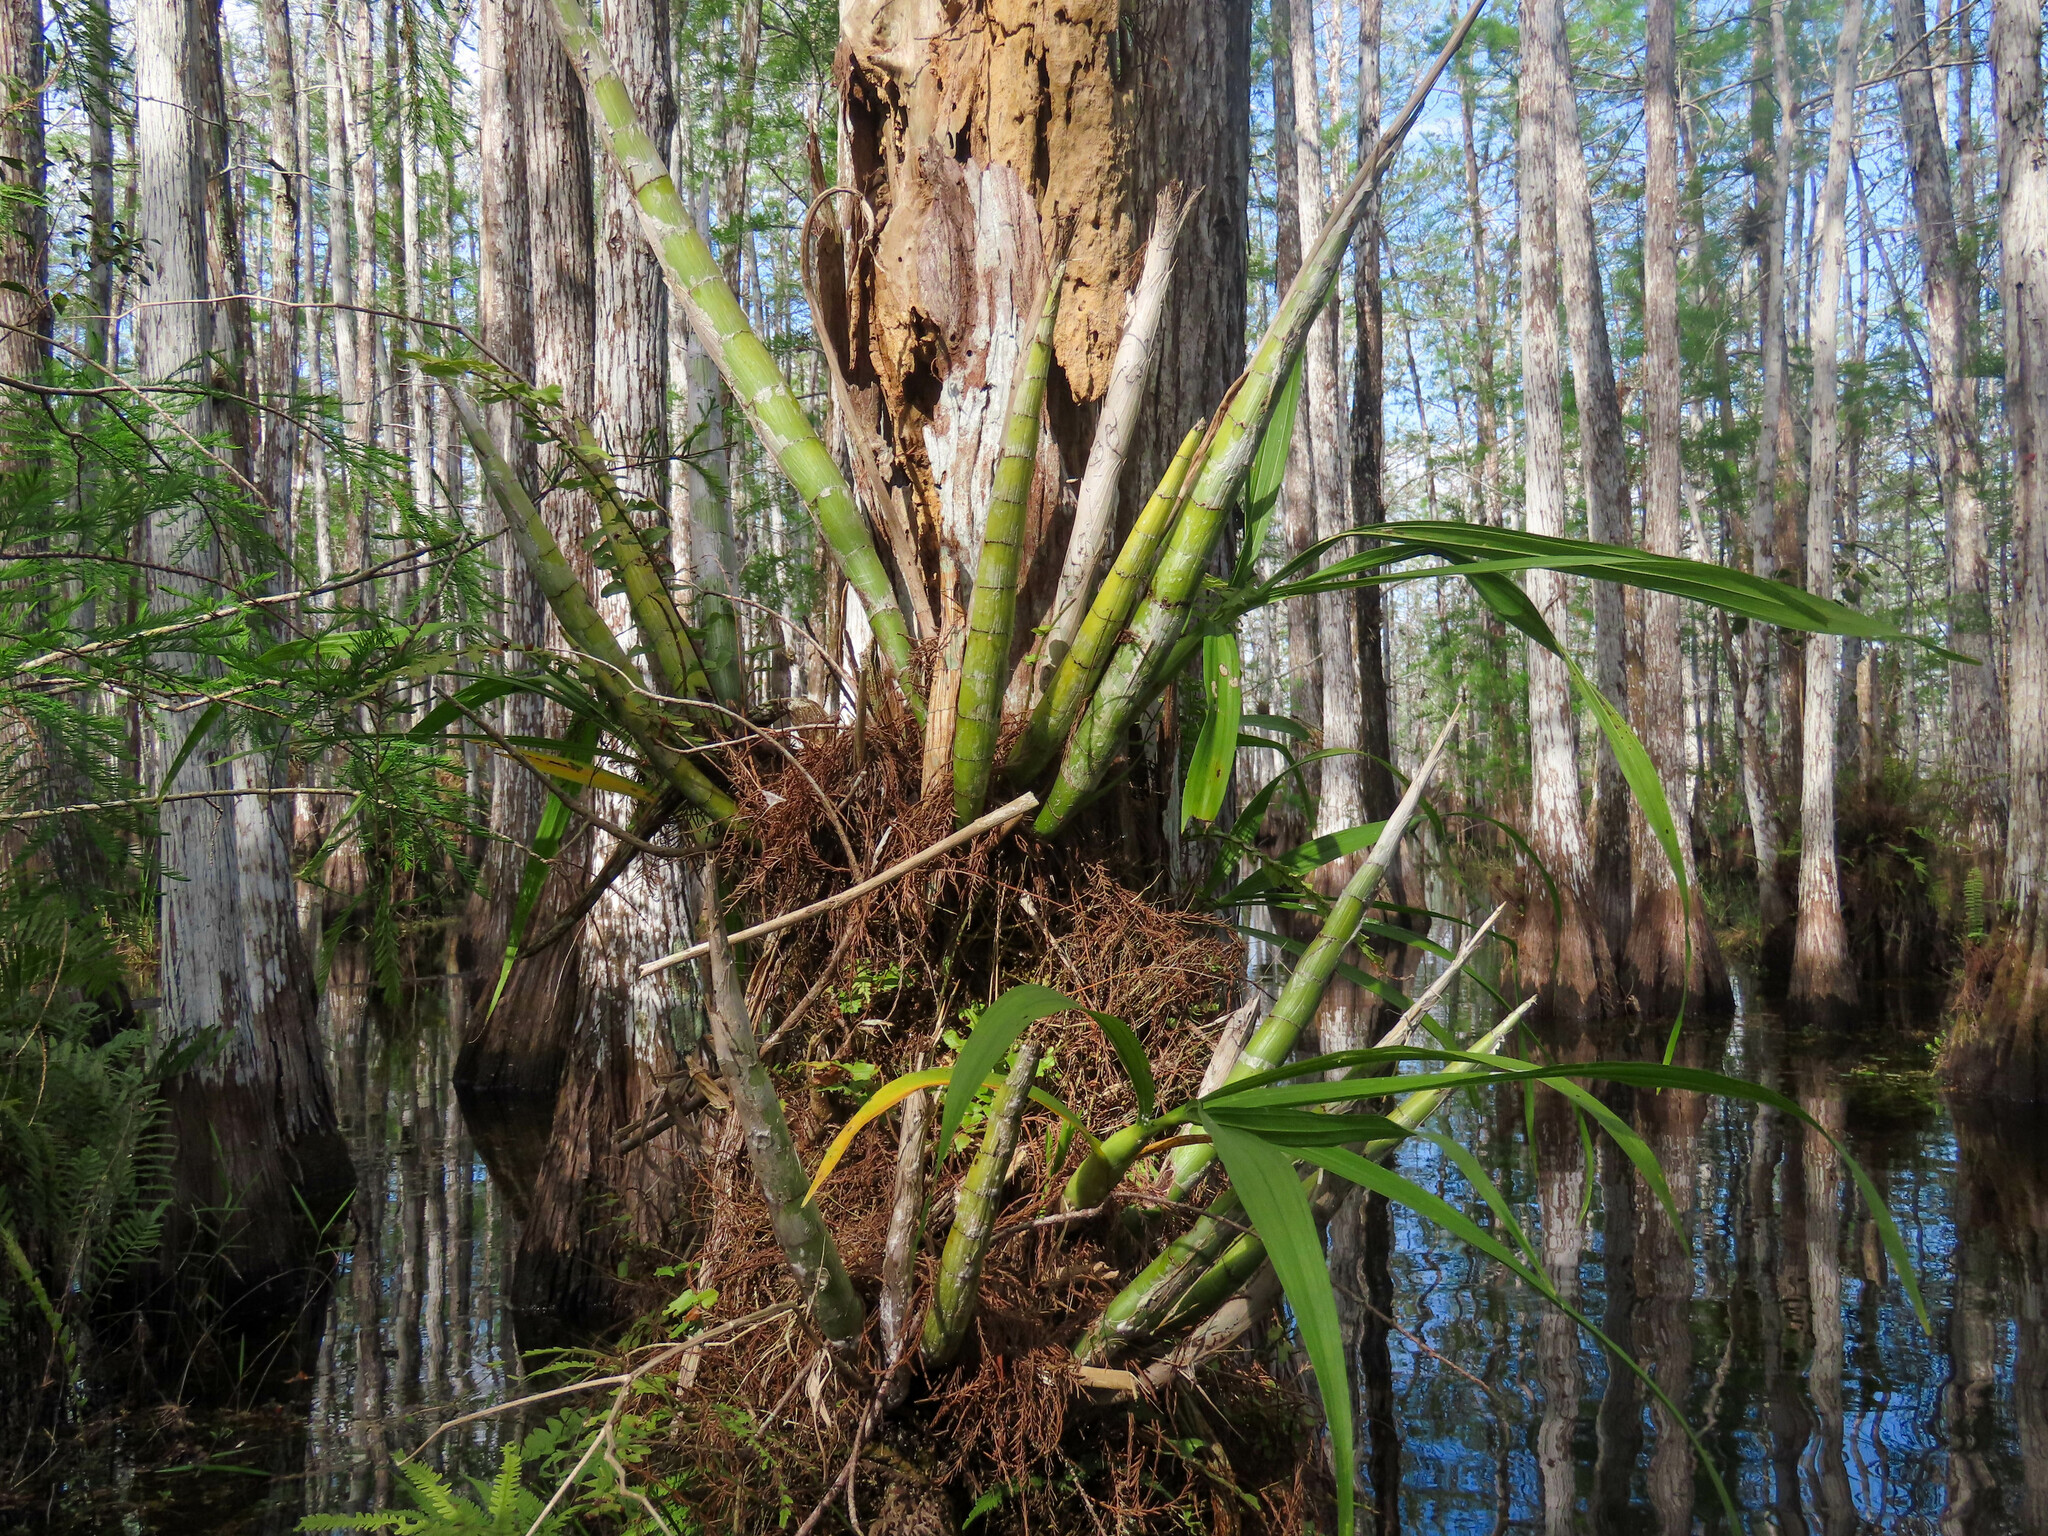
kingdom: Plantae
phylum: Tracheophyta
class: Liliopsida
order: Asparagales
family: Orchidaceae
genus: Cyrtopodium
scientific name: Cyrtopodium punctatum
